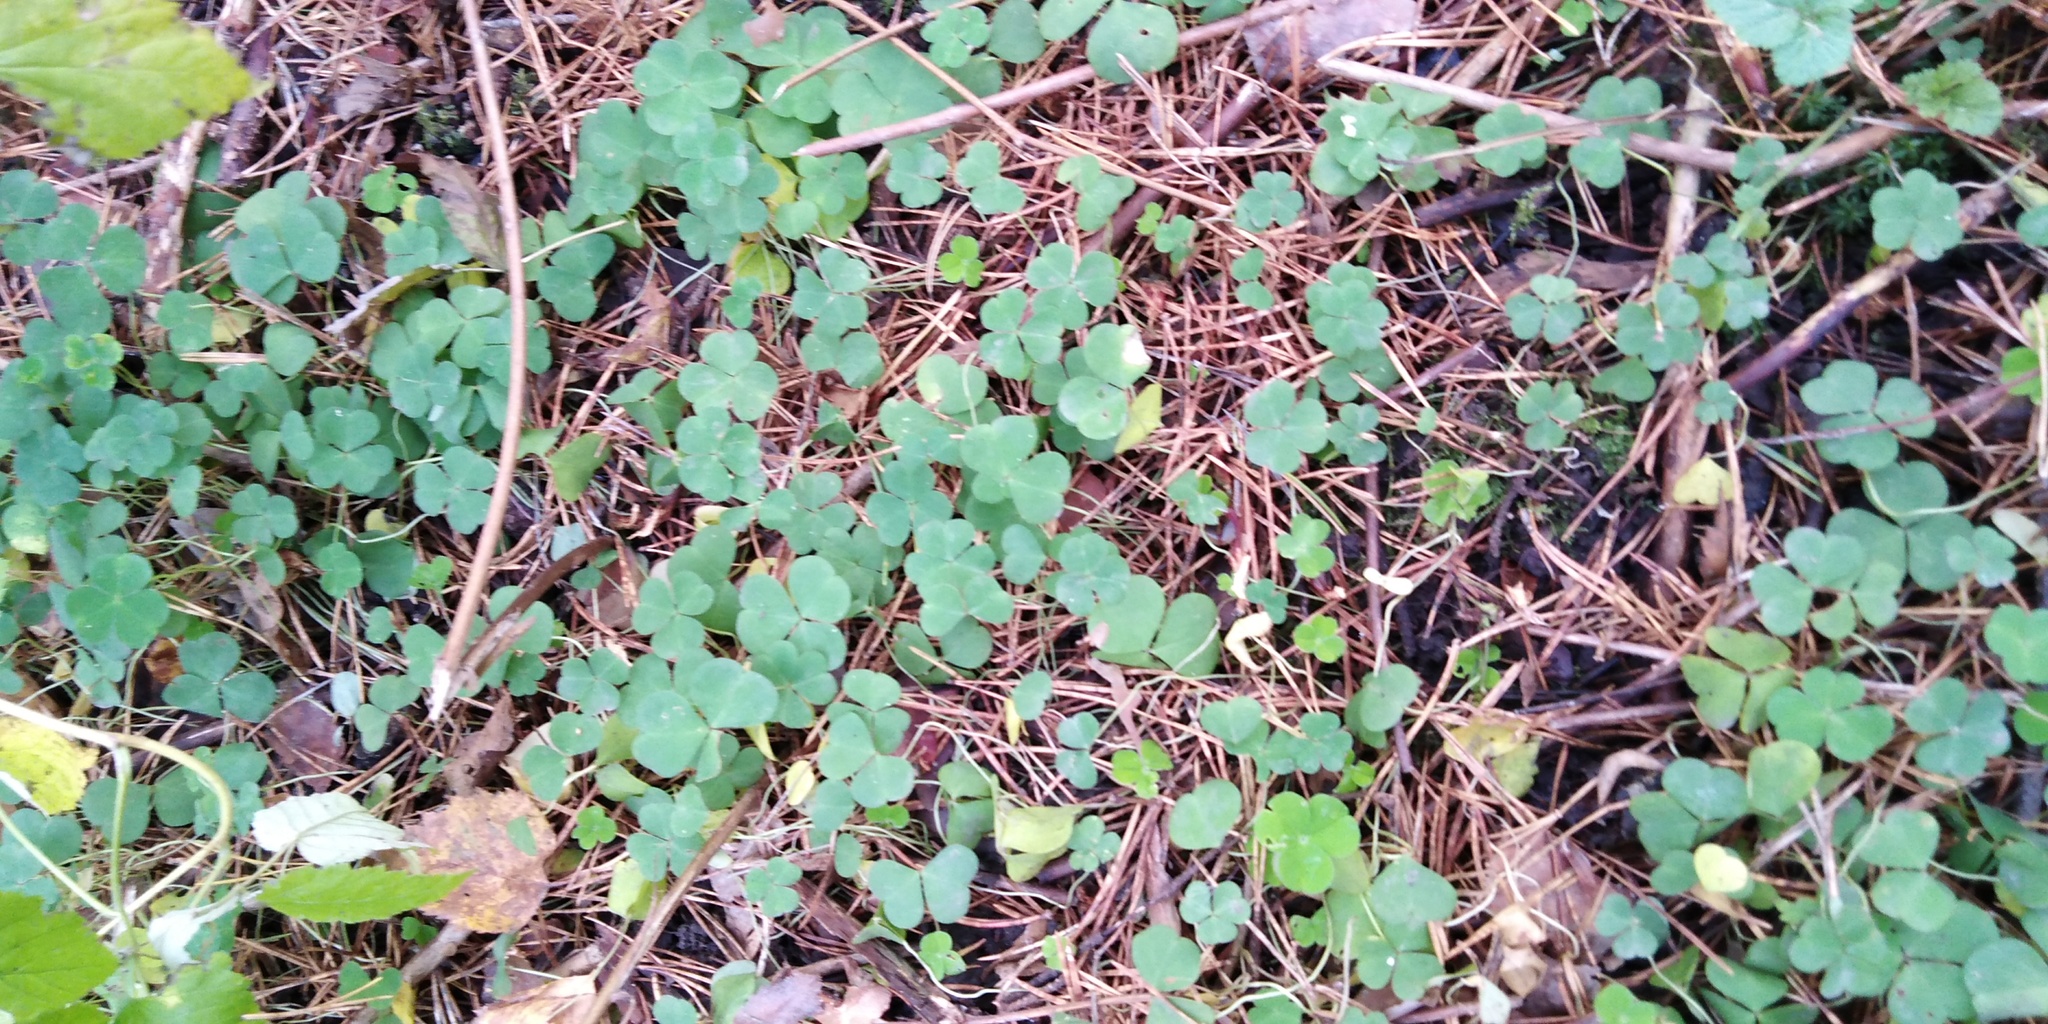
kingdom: Plantae
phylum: Tracheophyta
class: Magnoliopsida
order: Oxalidales
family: Oxalidaceae
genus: Oxalis
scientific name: Oxalis acetosella
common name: Wood-sorrel
